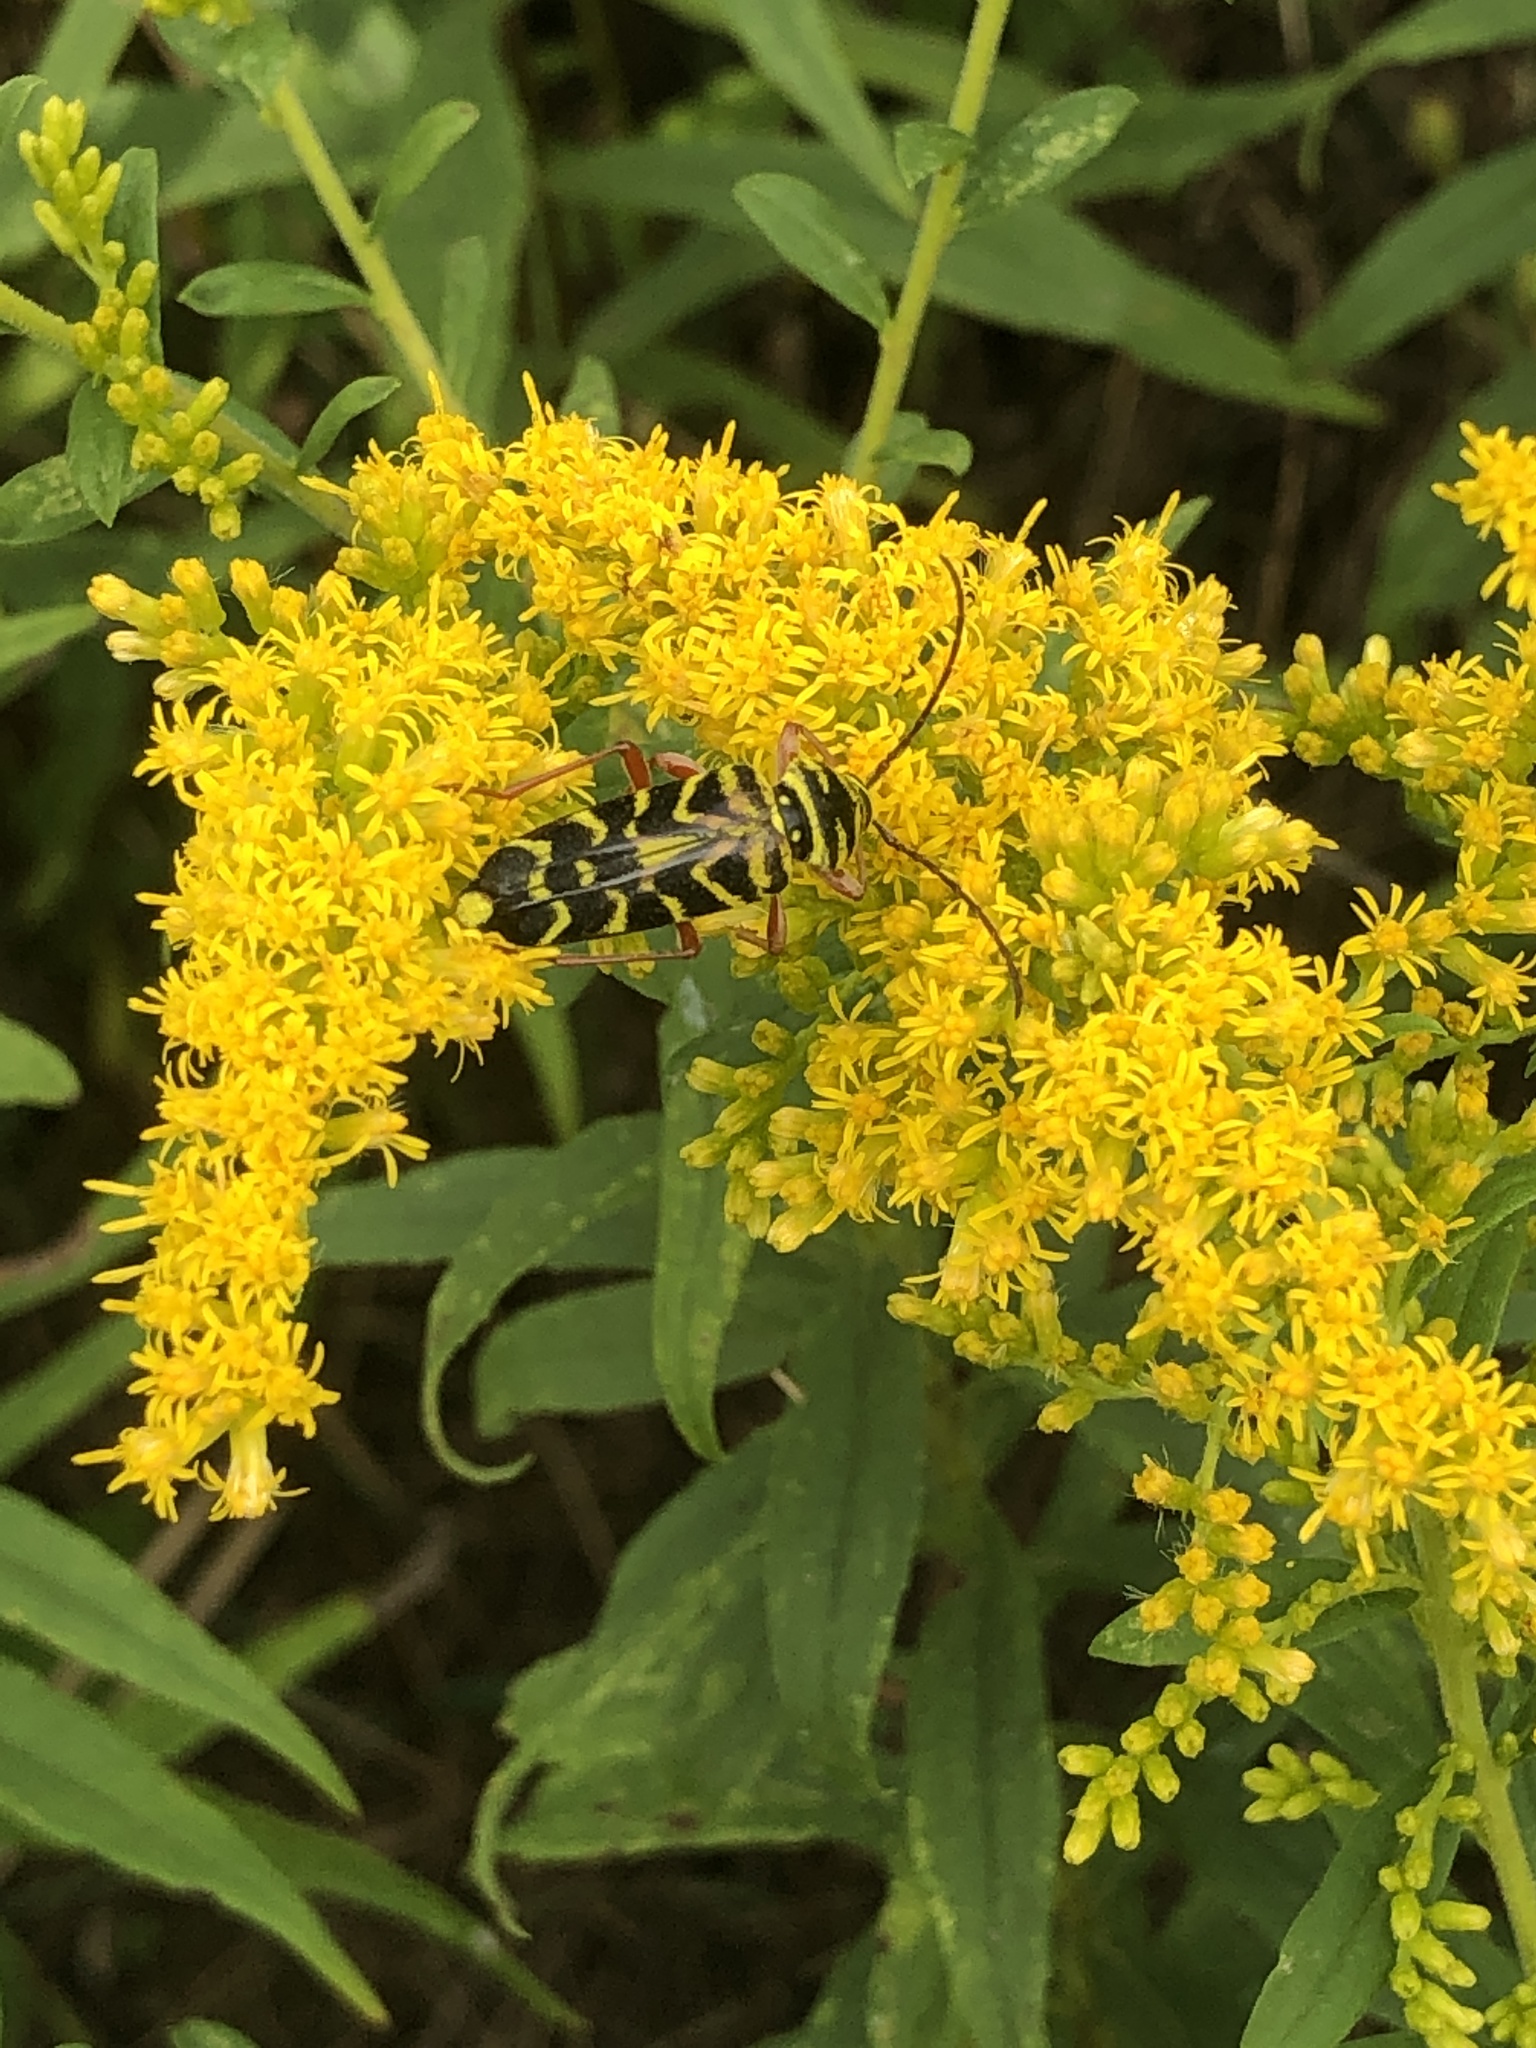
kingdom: Animalia
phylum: Arthropoda
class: Insecta
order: Coleoptera
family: Cerambycidae
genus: Megacyllene
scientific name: Megacyllene robiniae
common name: Locust borer
